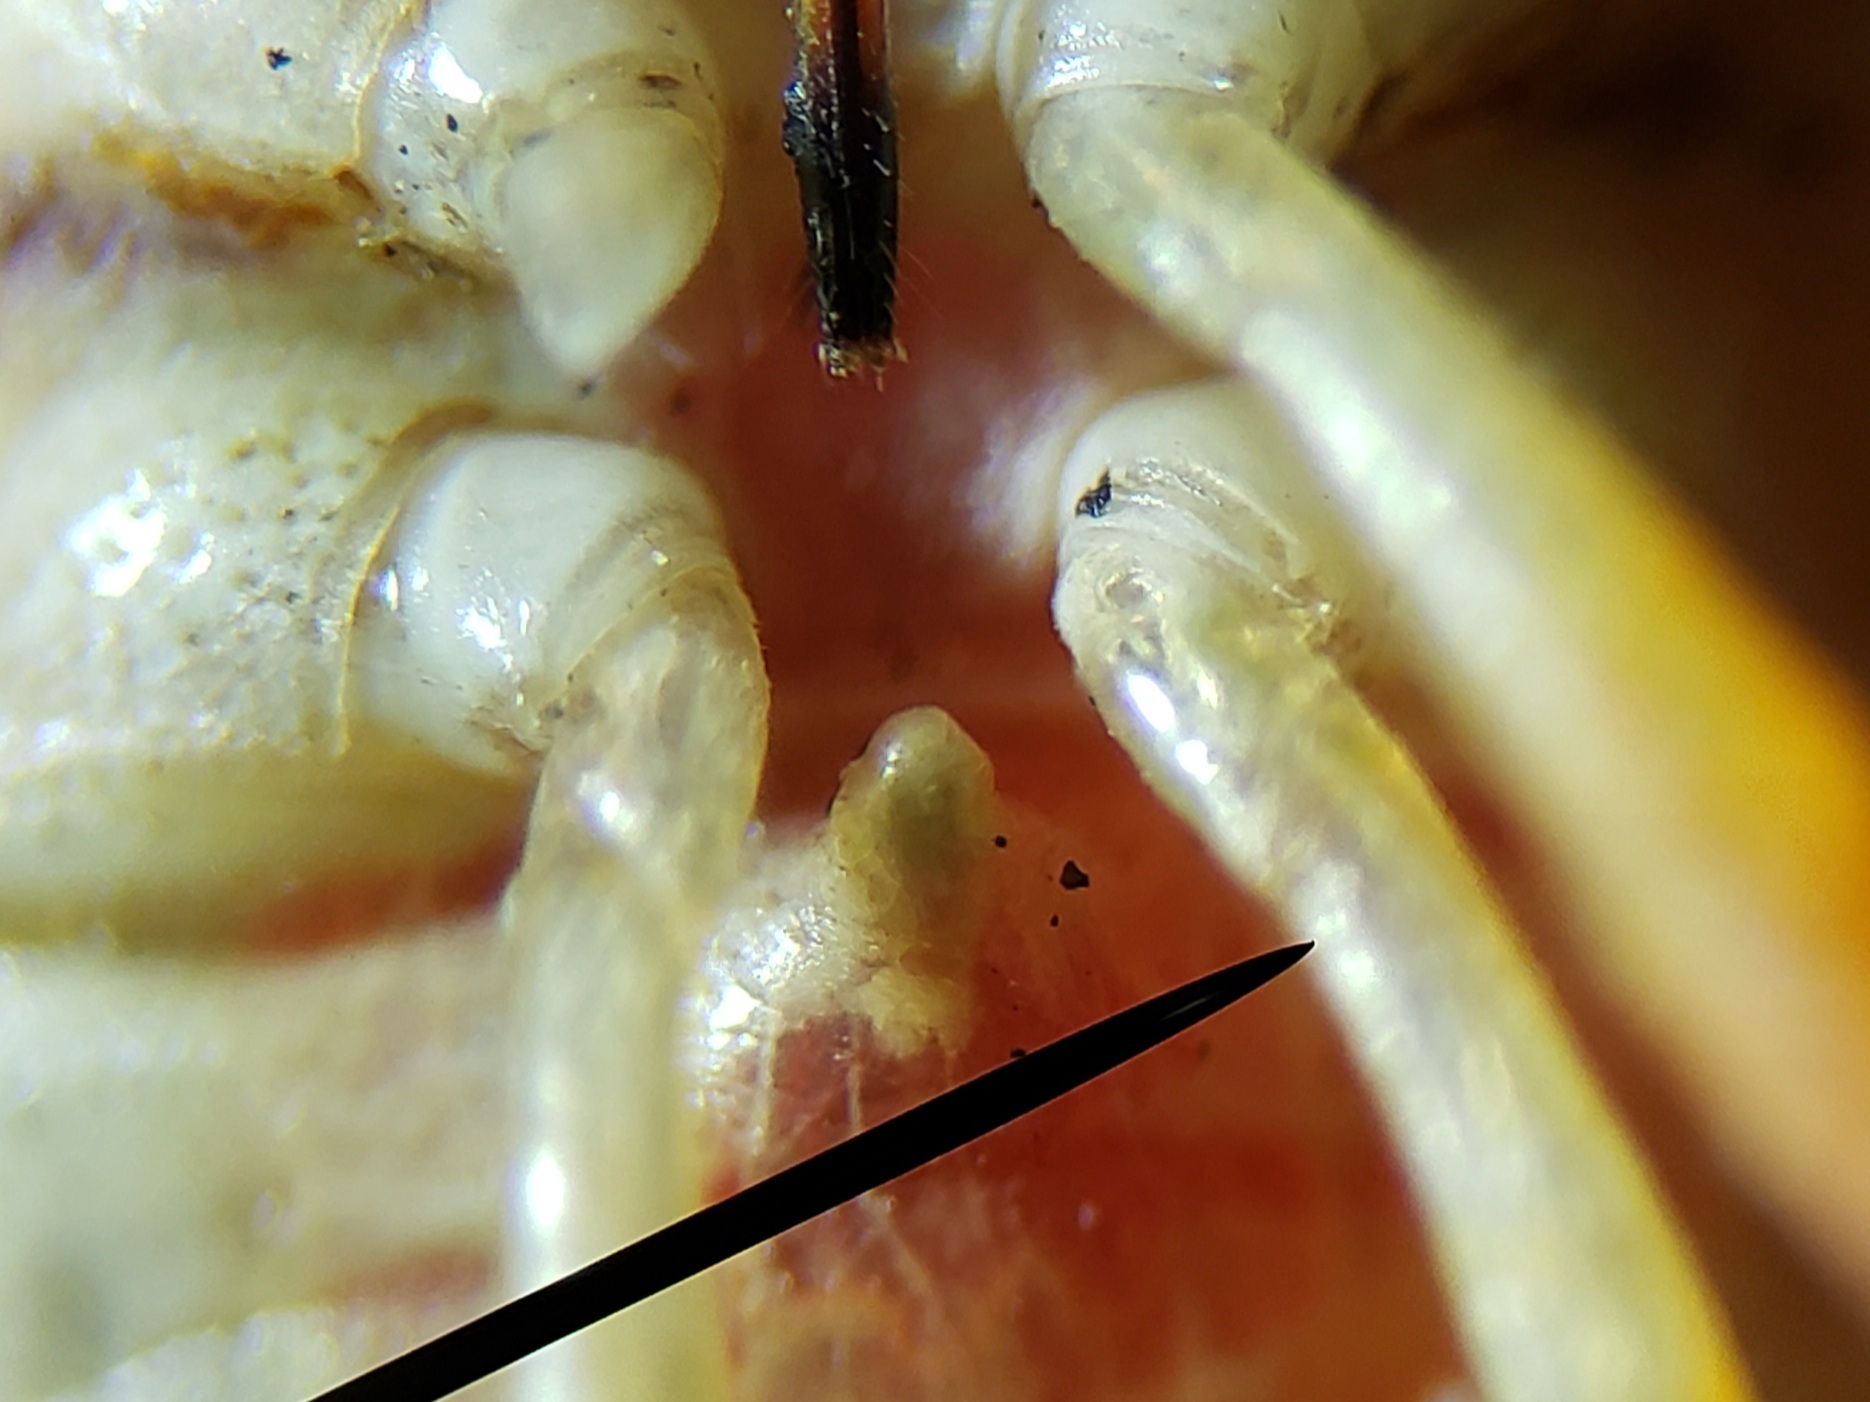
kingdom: Animalia
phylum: Arthropoda
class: Insecta
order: Hemiptera
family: Pentatomidae
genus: Dendrocoris
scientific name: Dendrocoris humeralis
